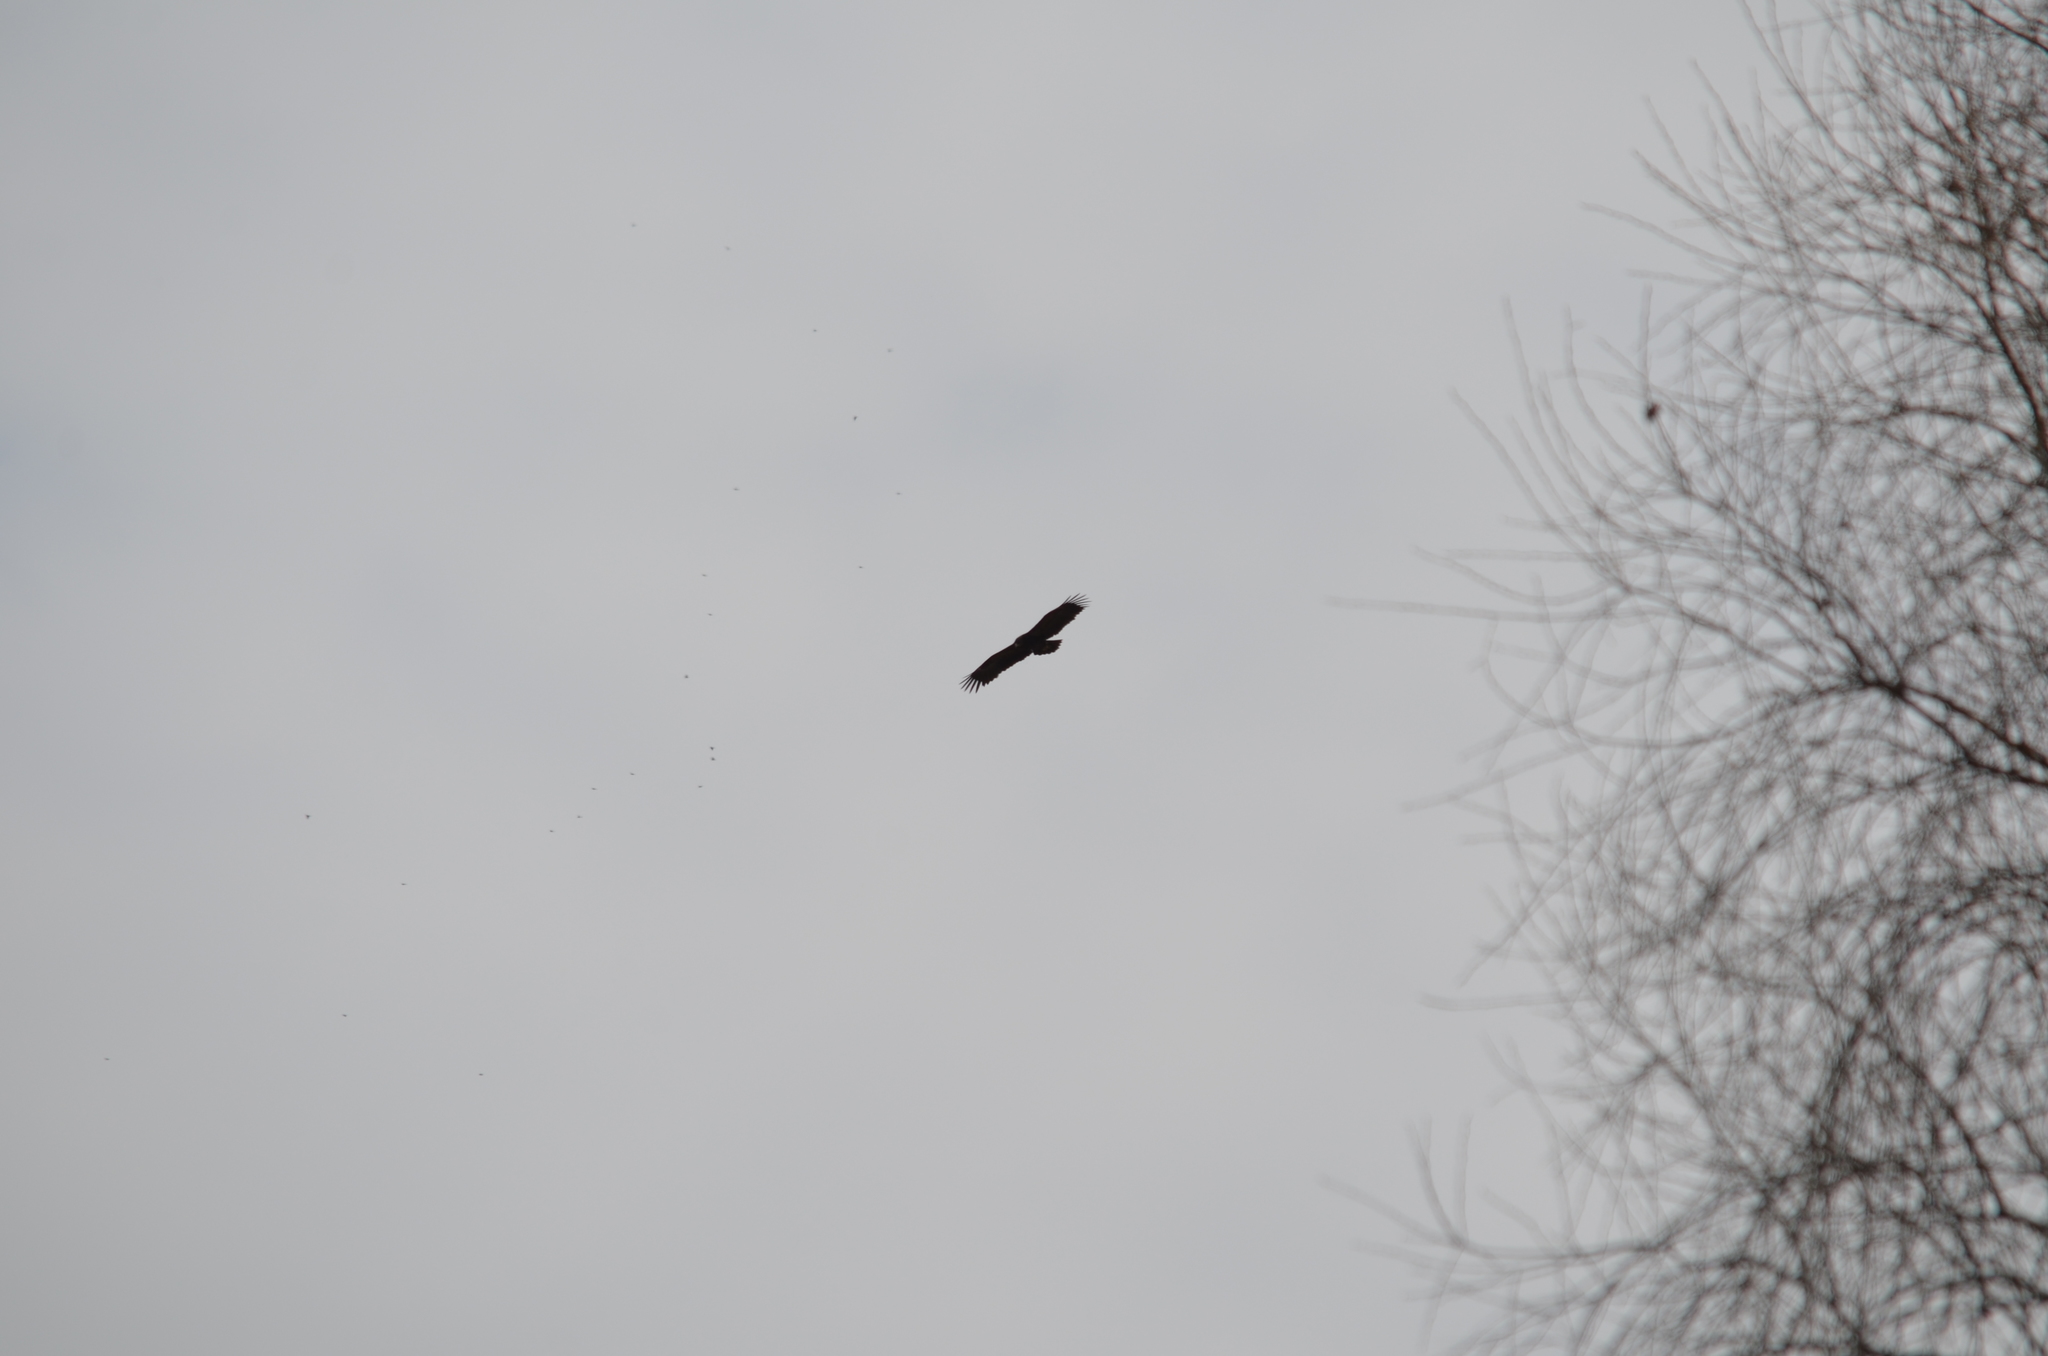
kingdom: Animalia
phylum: Chordata
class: Aves
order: Accipitriformes
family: Accipitridae
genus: Aquila
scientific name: Aquila clanga
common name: Greater spotted eagle
